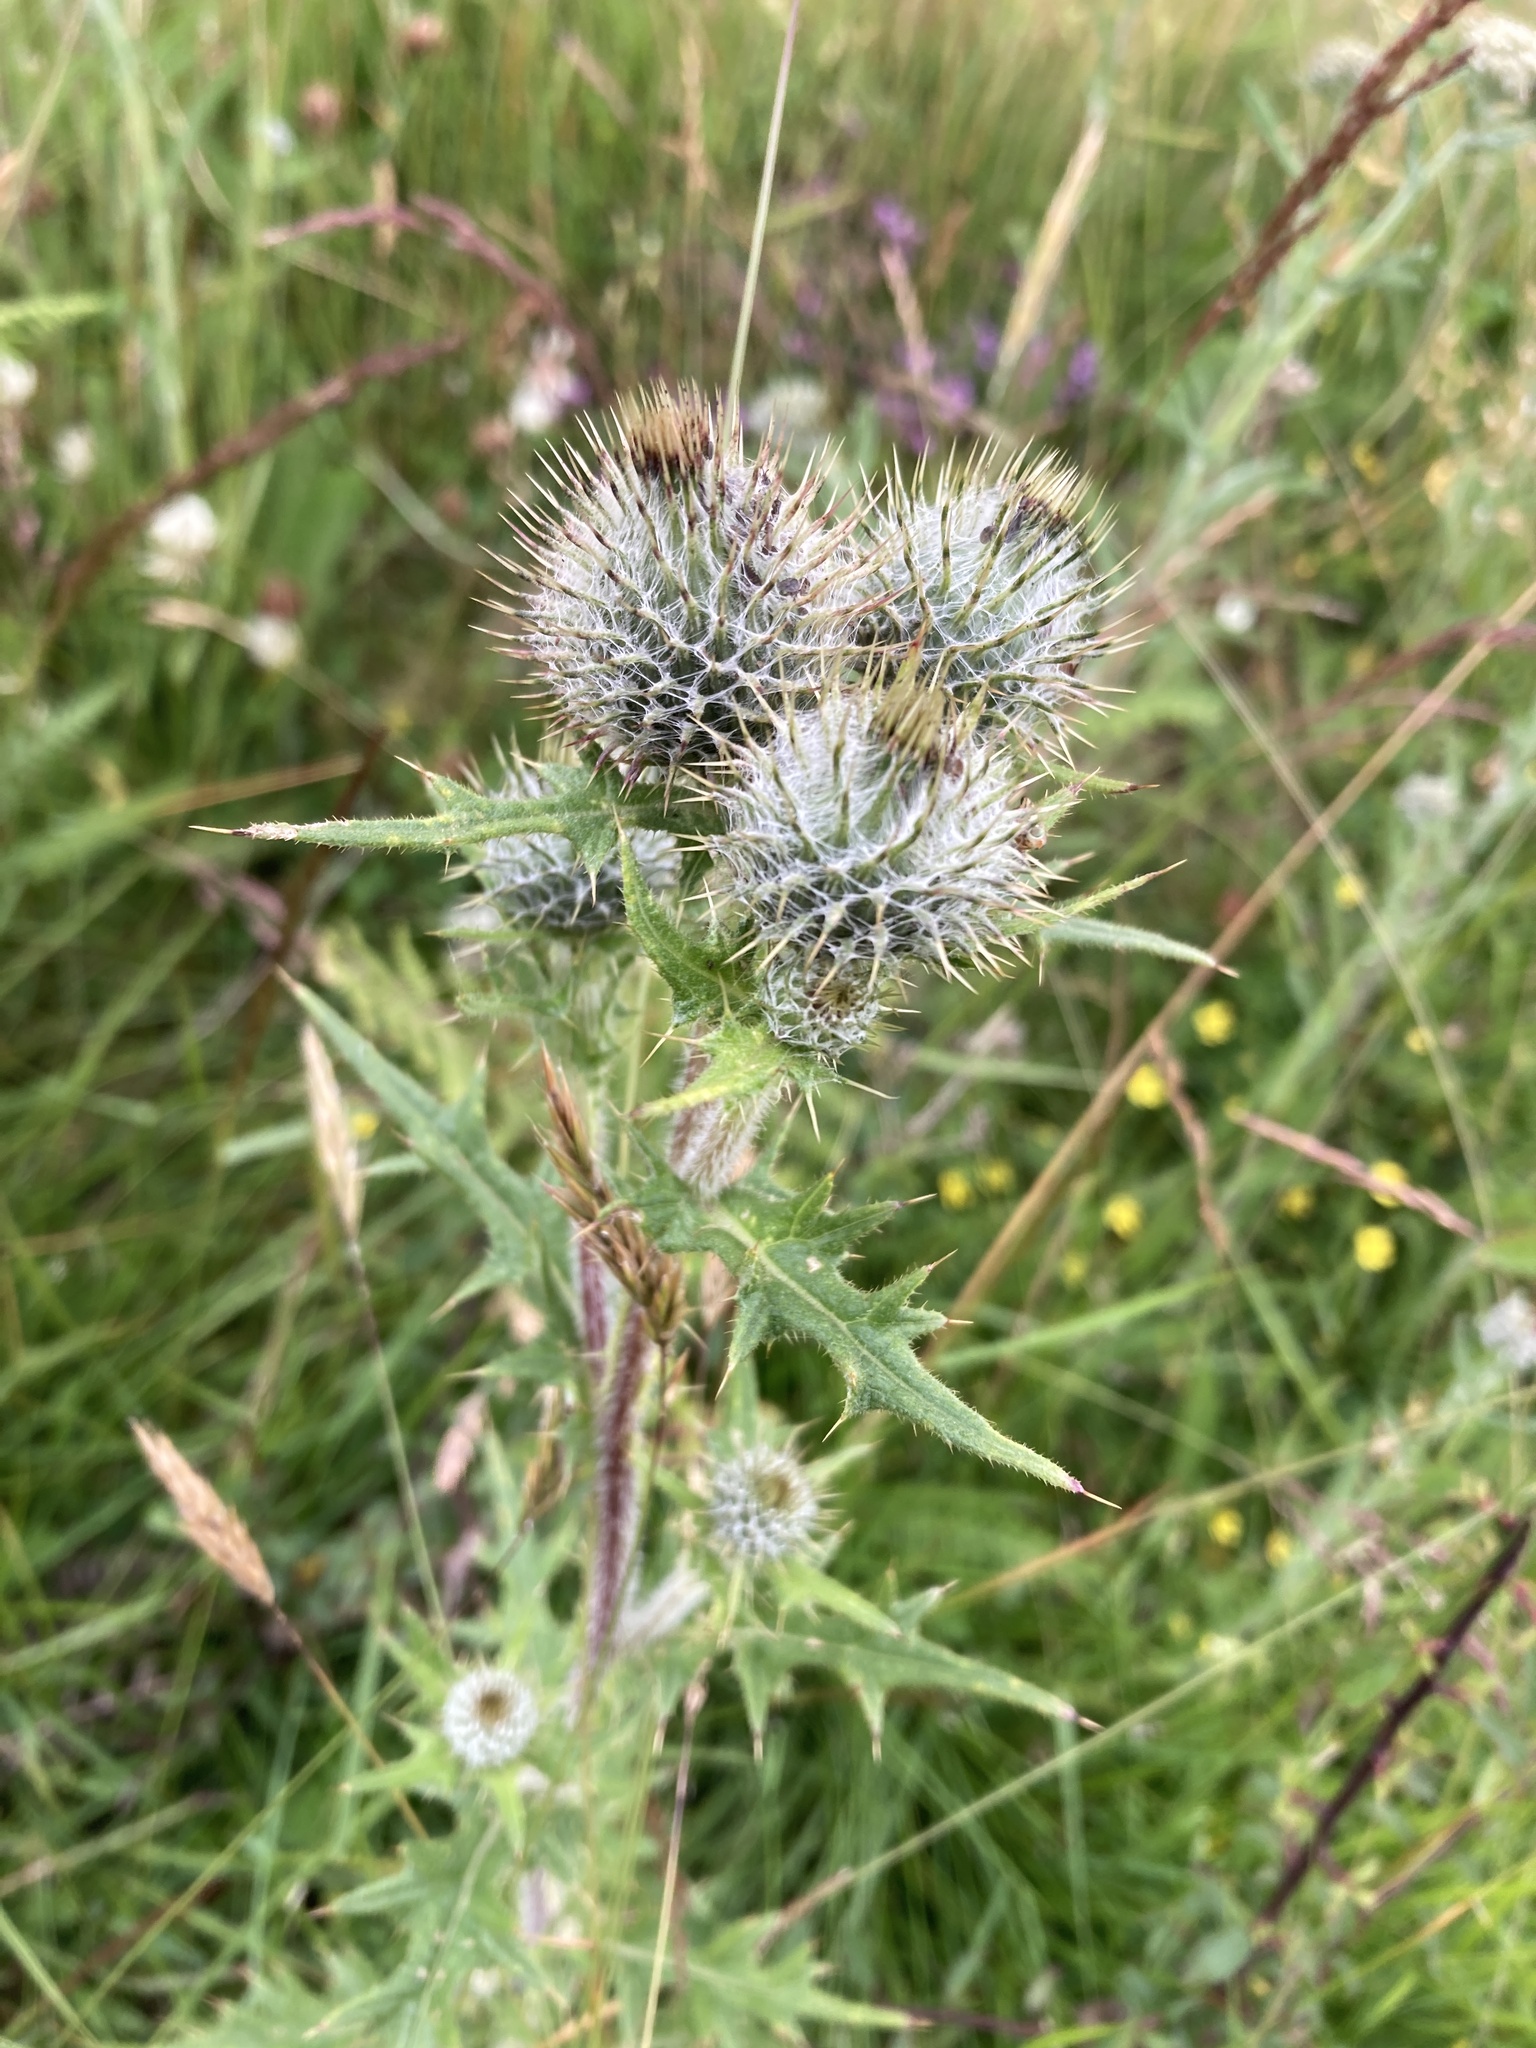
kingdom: Plantae
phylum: Tracheophyta
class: Magnoliopsida
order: Asterales
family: Asteraceae
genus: Cirsium
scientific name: Cirsium vulgare
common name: Bull thistle
